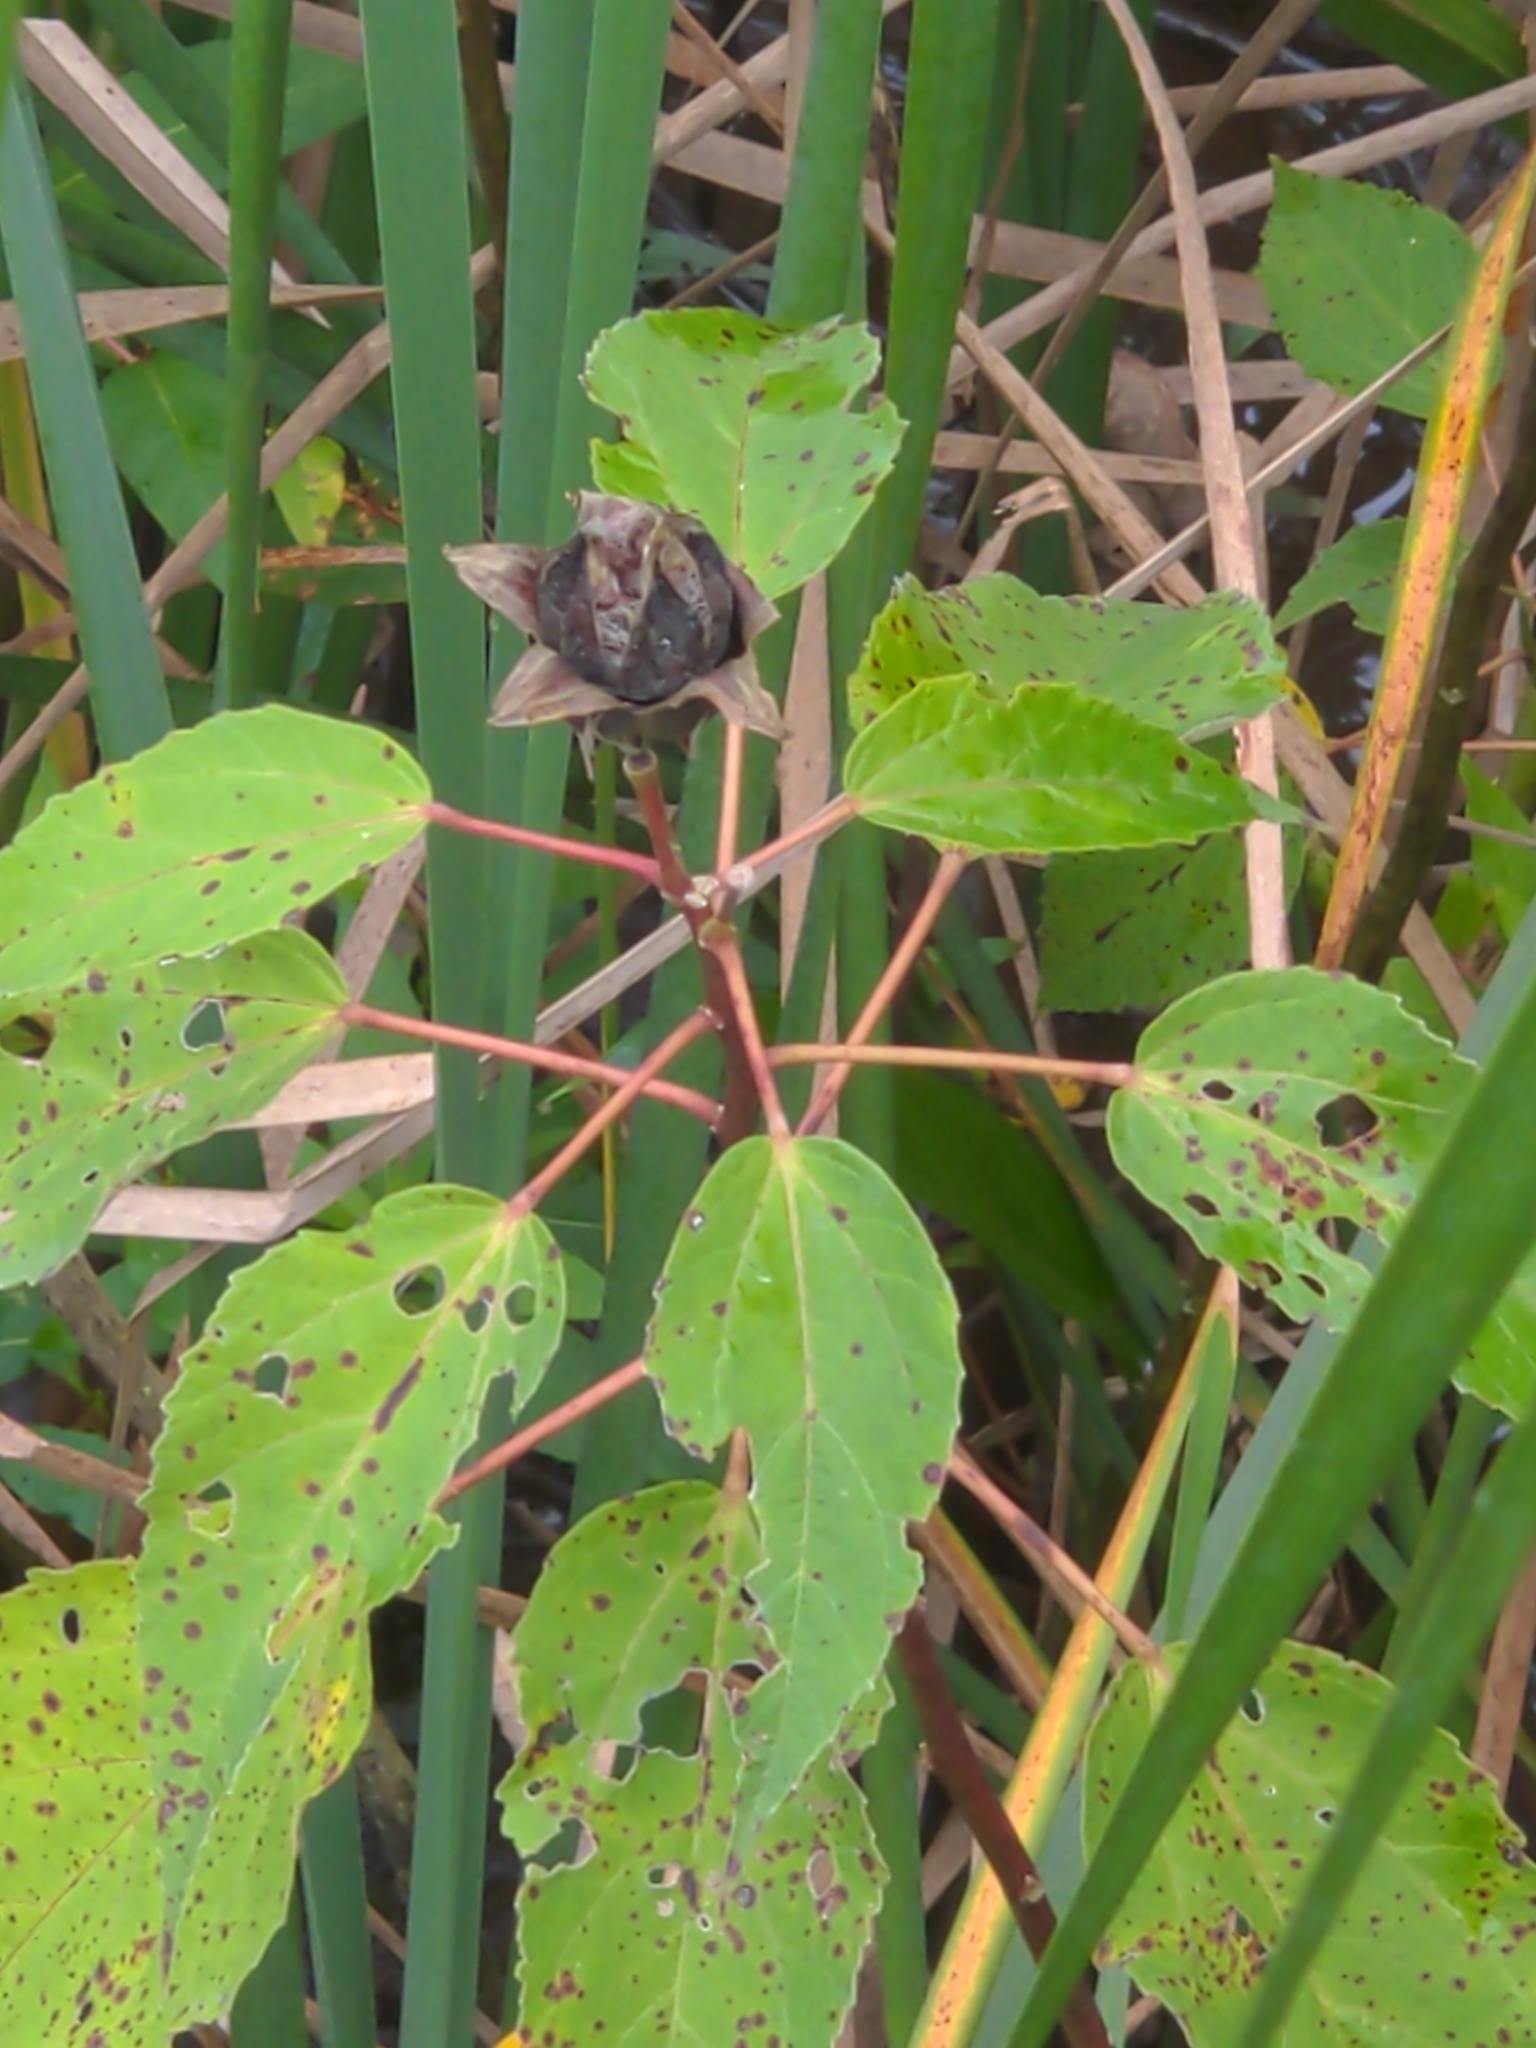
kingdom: Plantae
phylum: Tracheophyta
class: Magnoliopsida
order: Malvales
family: Malvaceae
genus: Hibiscus
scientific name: Hibiscus moscheutos
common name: Common rose-mallow
